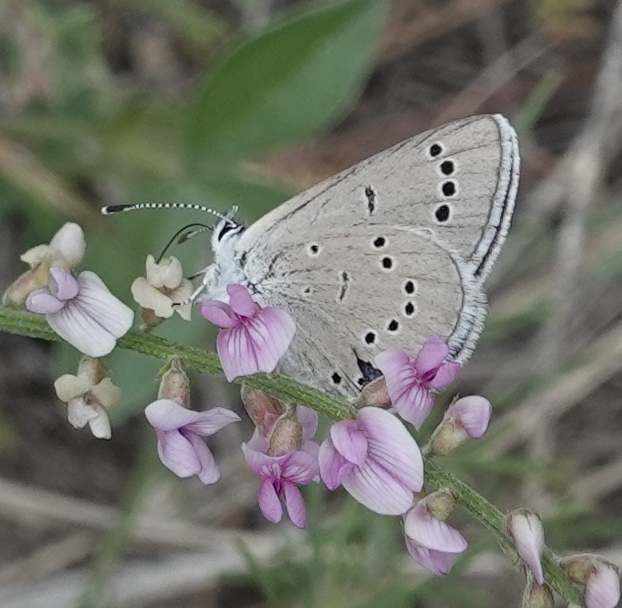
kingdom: Animalia
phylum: Arthropoda
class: Insecta
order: Lepidoptera
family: Lycaenidae
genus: Glaucopsyche
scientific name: Glaucopsyche lygdamus
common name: Silvery blue
